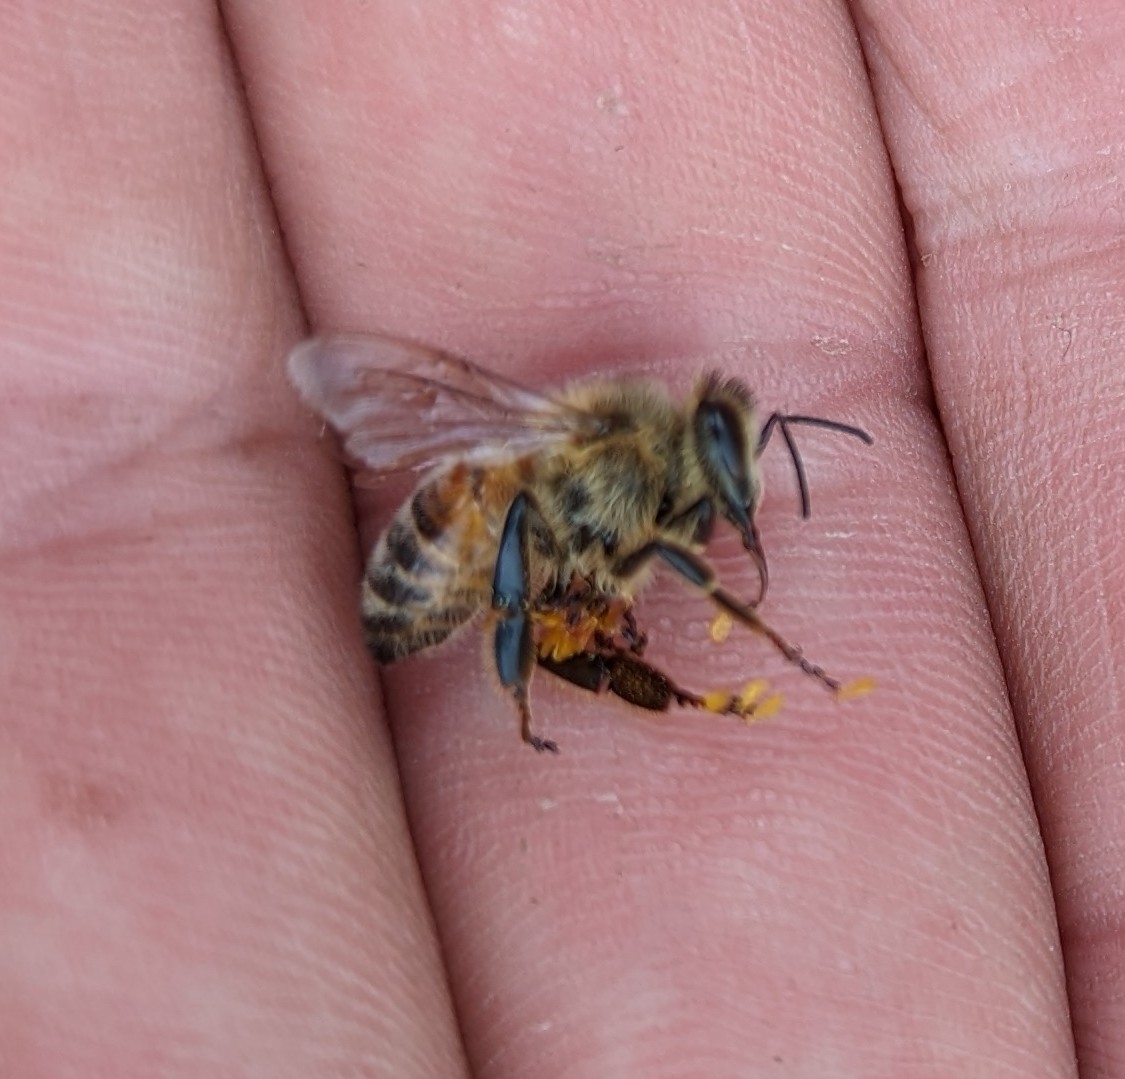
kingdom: Animalia
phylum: Arthropoda
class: Insecta
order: Hymenoptera
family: Apidae
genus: Apis
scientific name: Apis mellifera
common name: Honey bee
